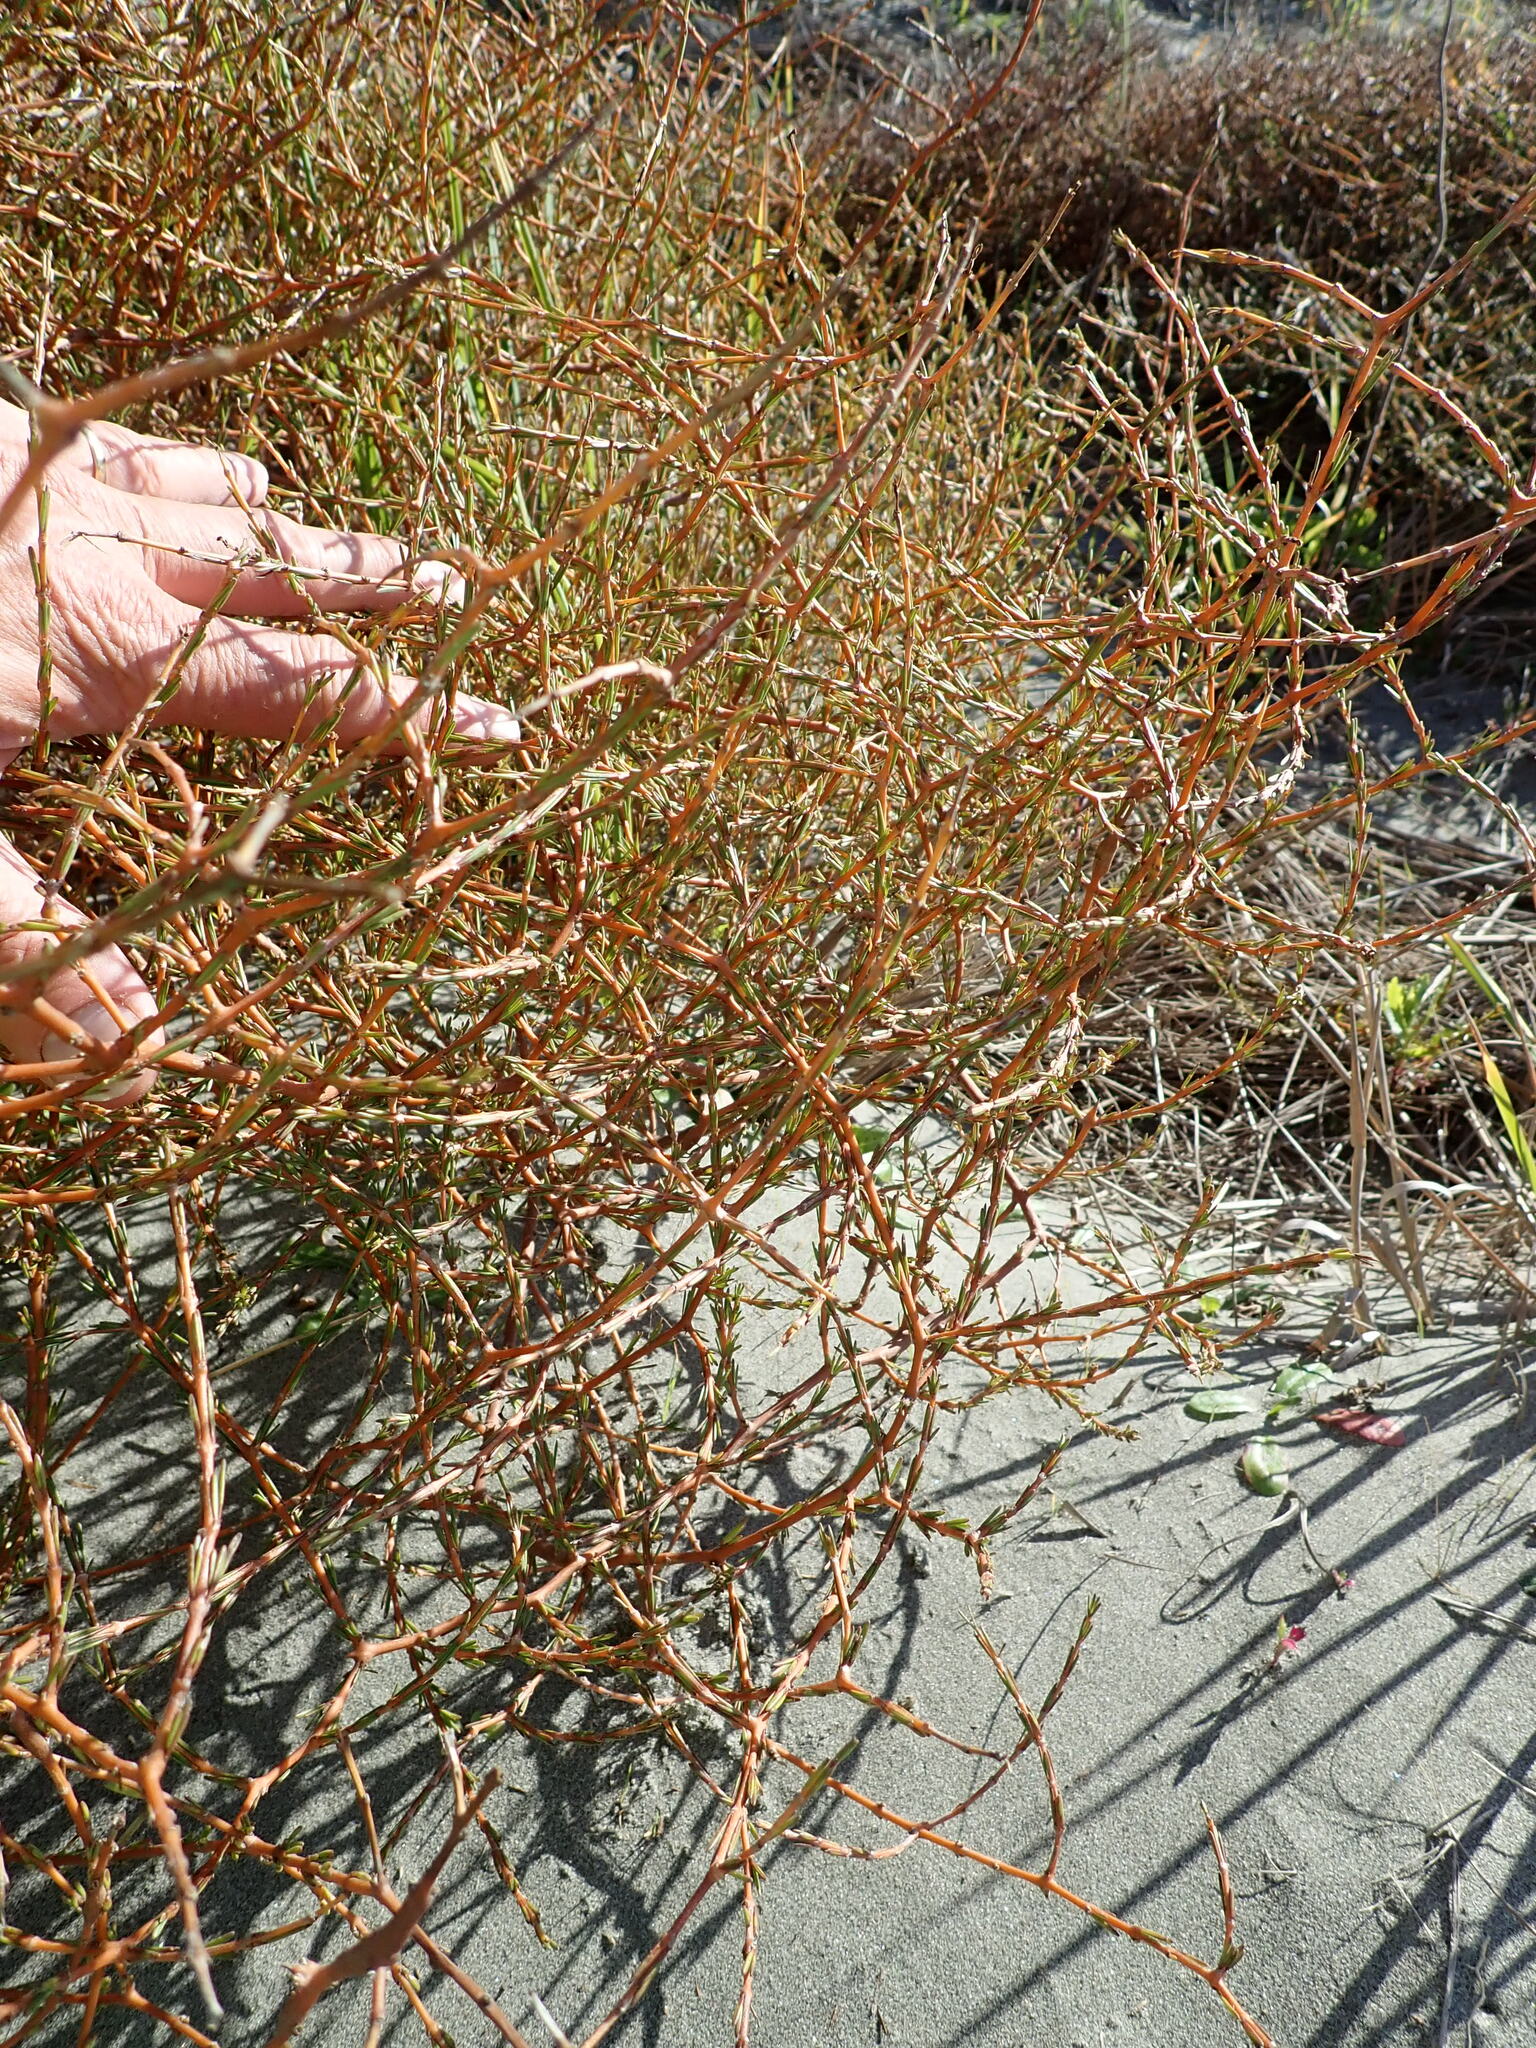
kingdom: Plantae
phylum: Tracheophyta
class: Magnoliopsida
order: Gentianales
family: Rubiaceae
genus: Coprosma
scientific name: Coprosma acerosa
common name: Sand coprosma
